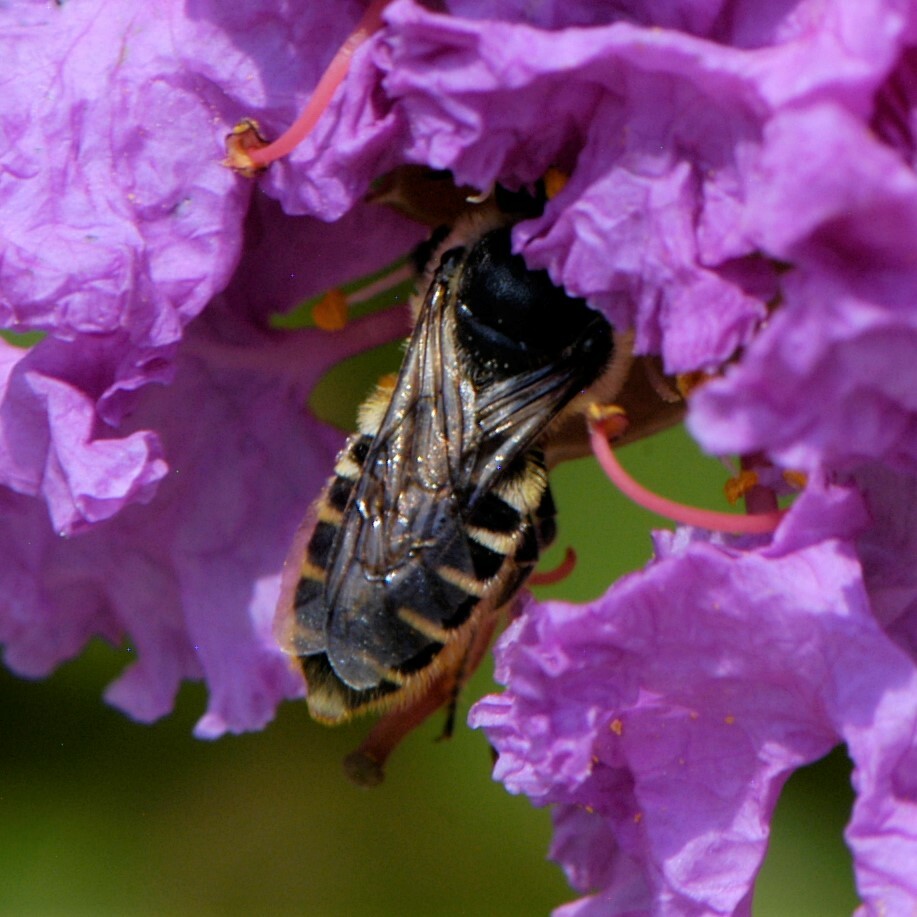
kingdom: Animalia
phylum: Arthropoda
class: Insecta
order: Hymenoptera
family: Megachilidae
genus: Megachile
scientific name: Megachile
